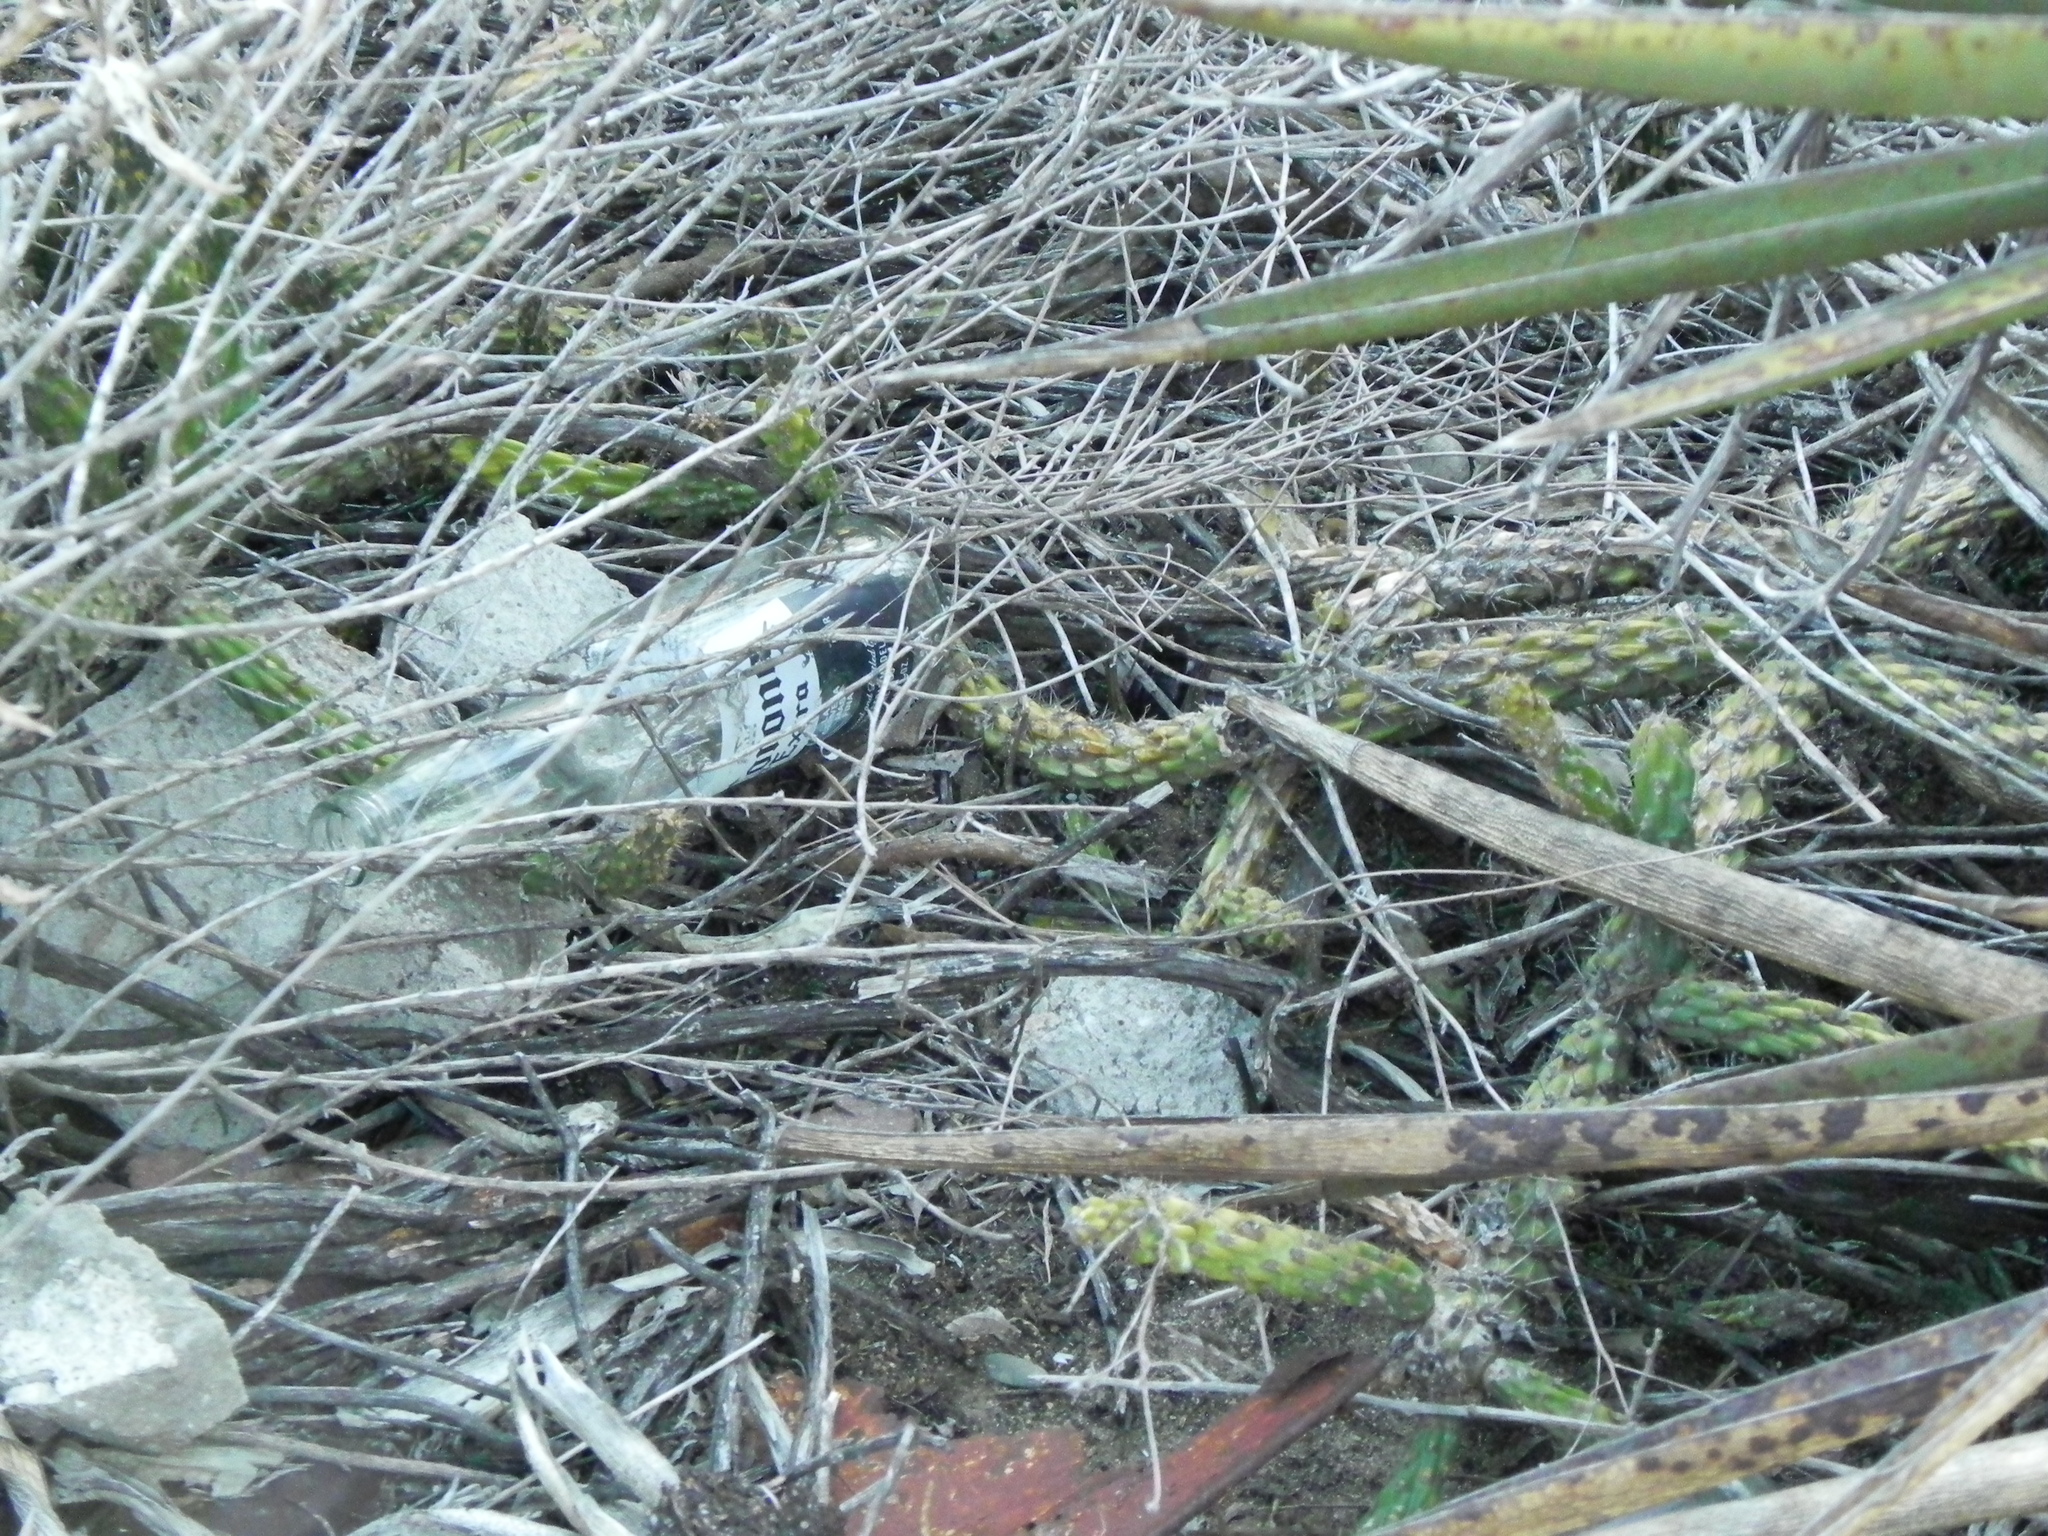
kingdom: Plantae
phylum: Tracheophyta
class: Magnoliopsida
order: Caryophyllales
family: Cactaceae
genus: Cylindropuntia
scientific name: Cylindropuntia californica
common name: Snake cholla
